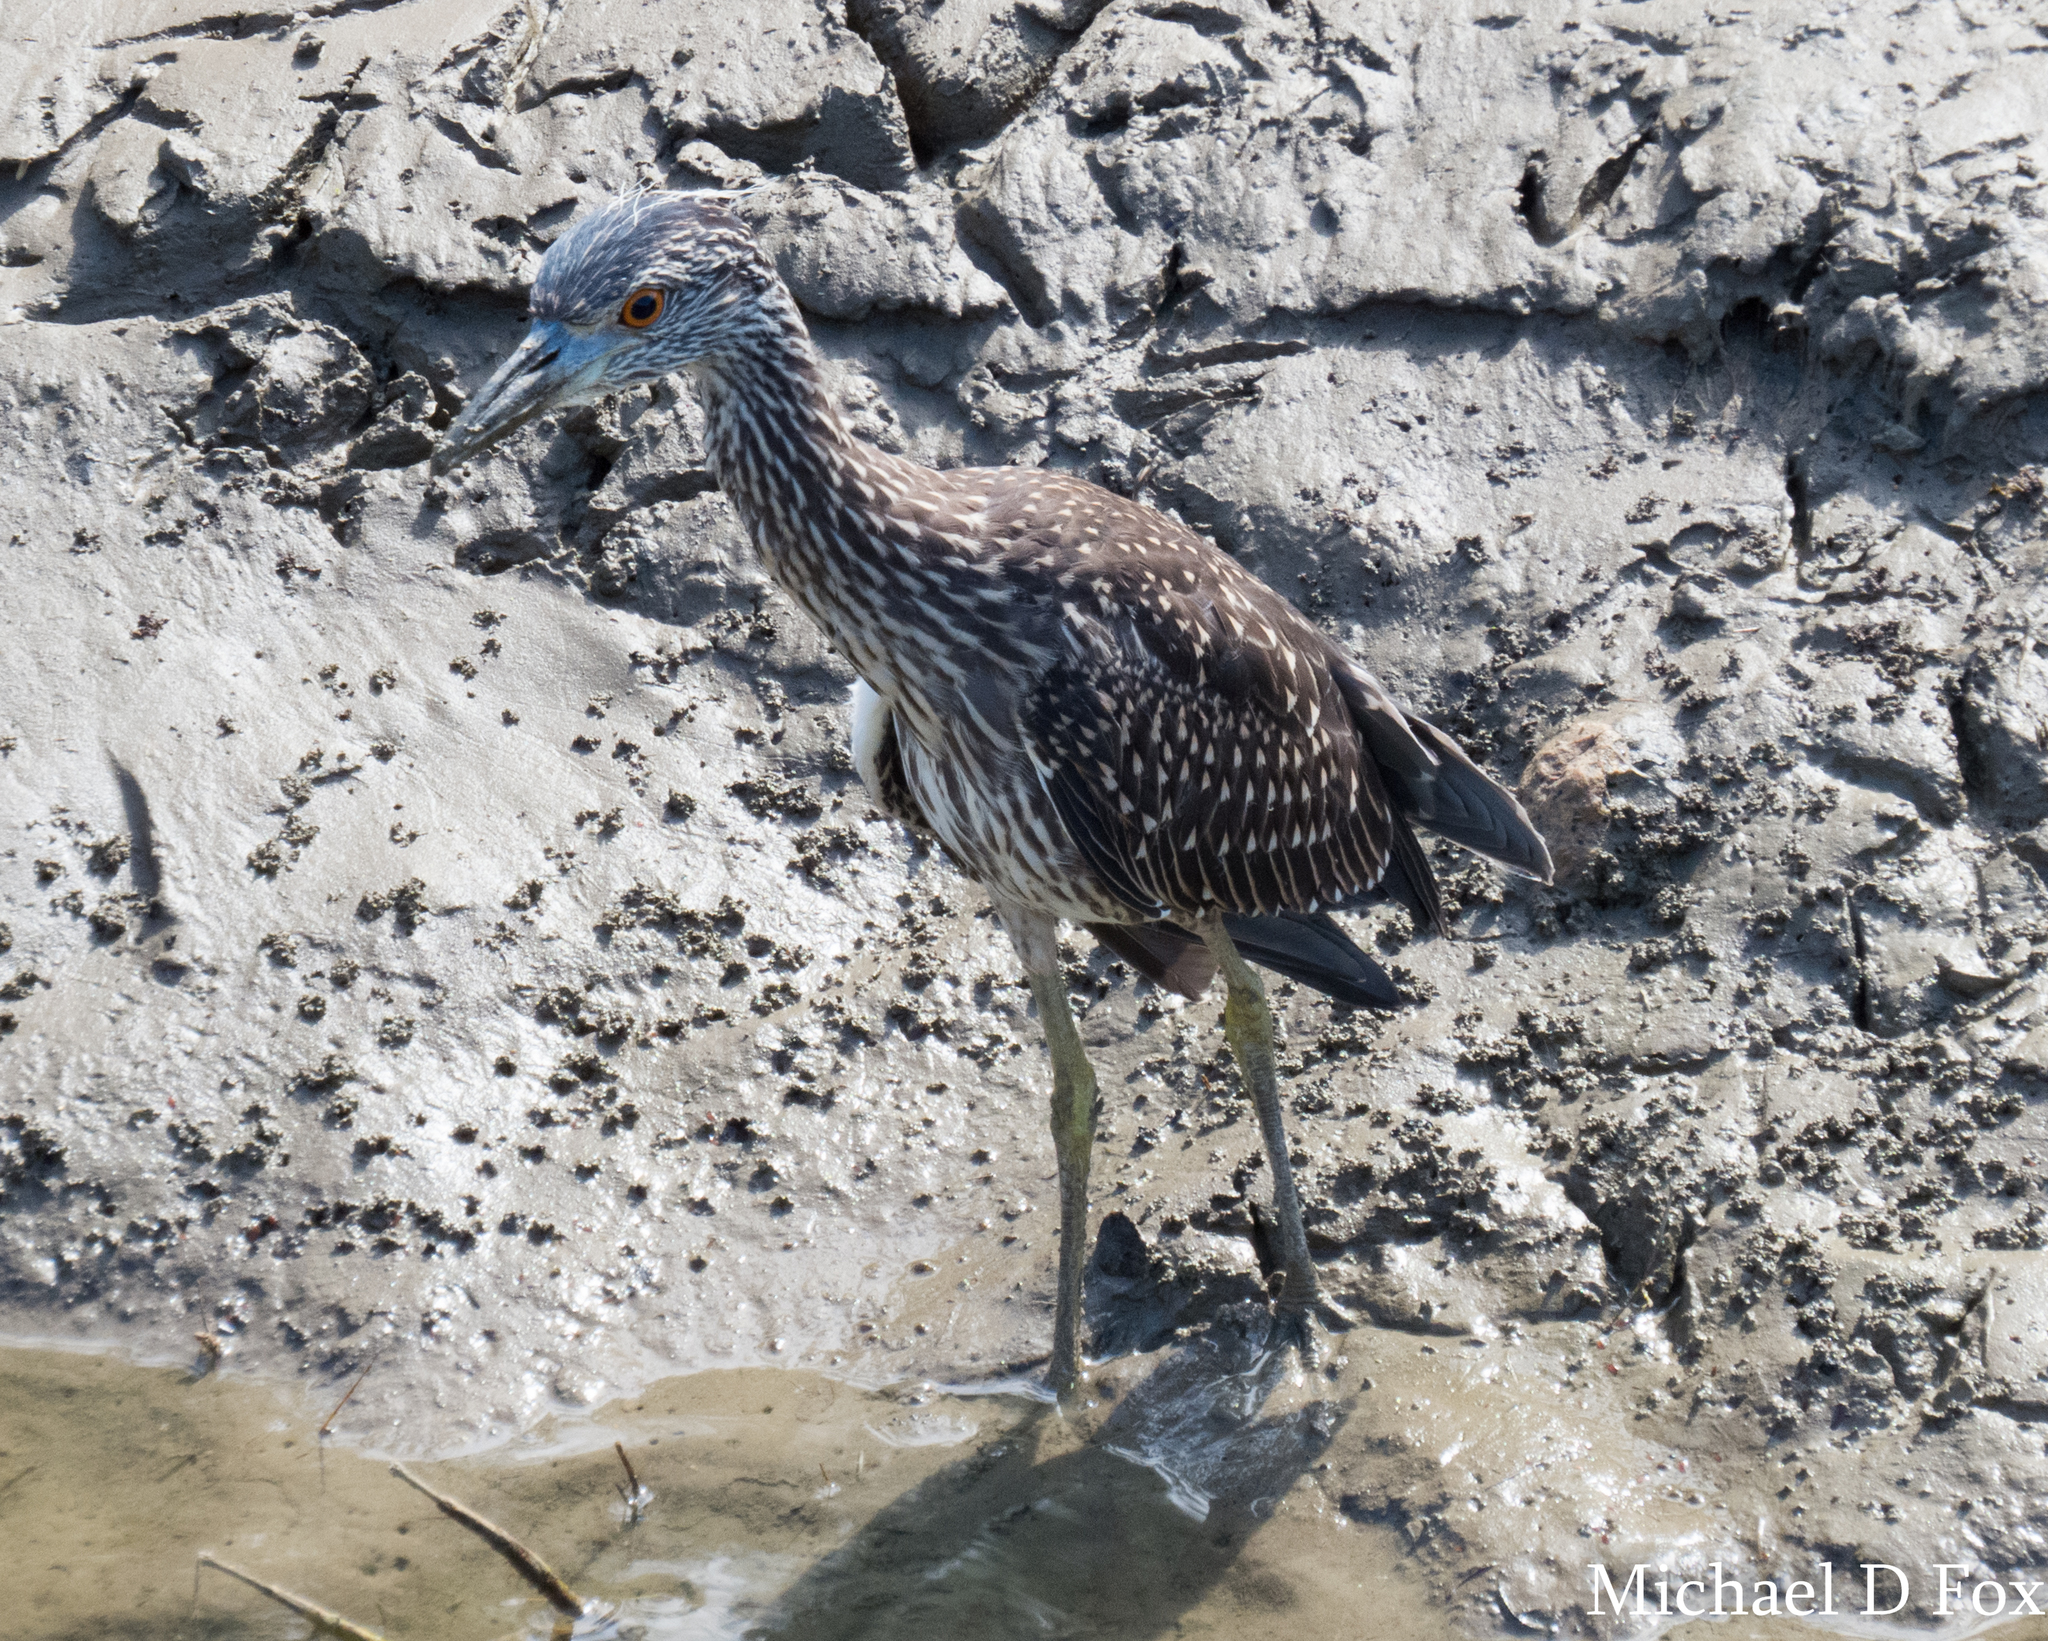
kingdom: Animalia
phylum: Chordata
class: Aves
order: Pelecaniformes
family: Ardeidae
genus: Nyctanassa
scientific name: Nyctanassa violacea
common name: Yellow-crowned night heron
